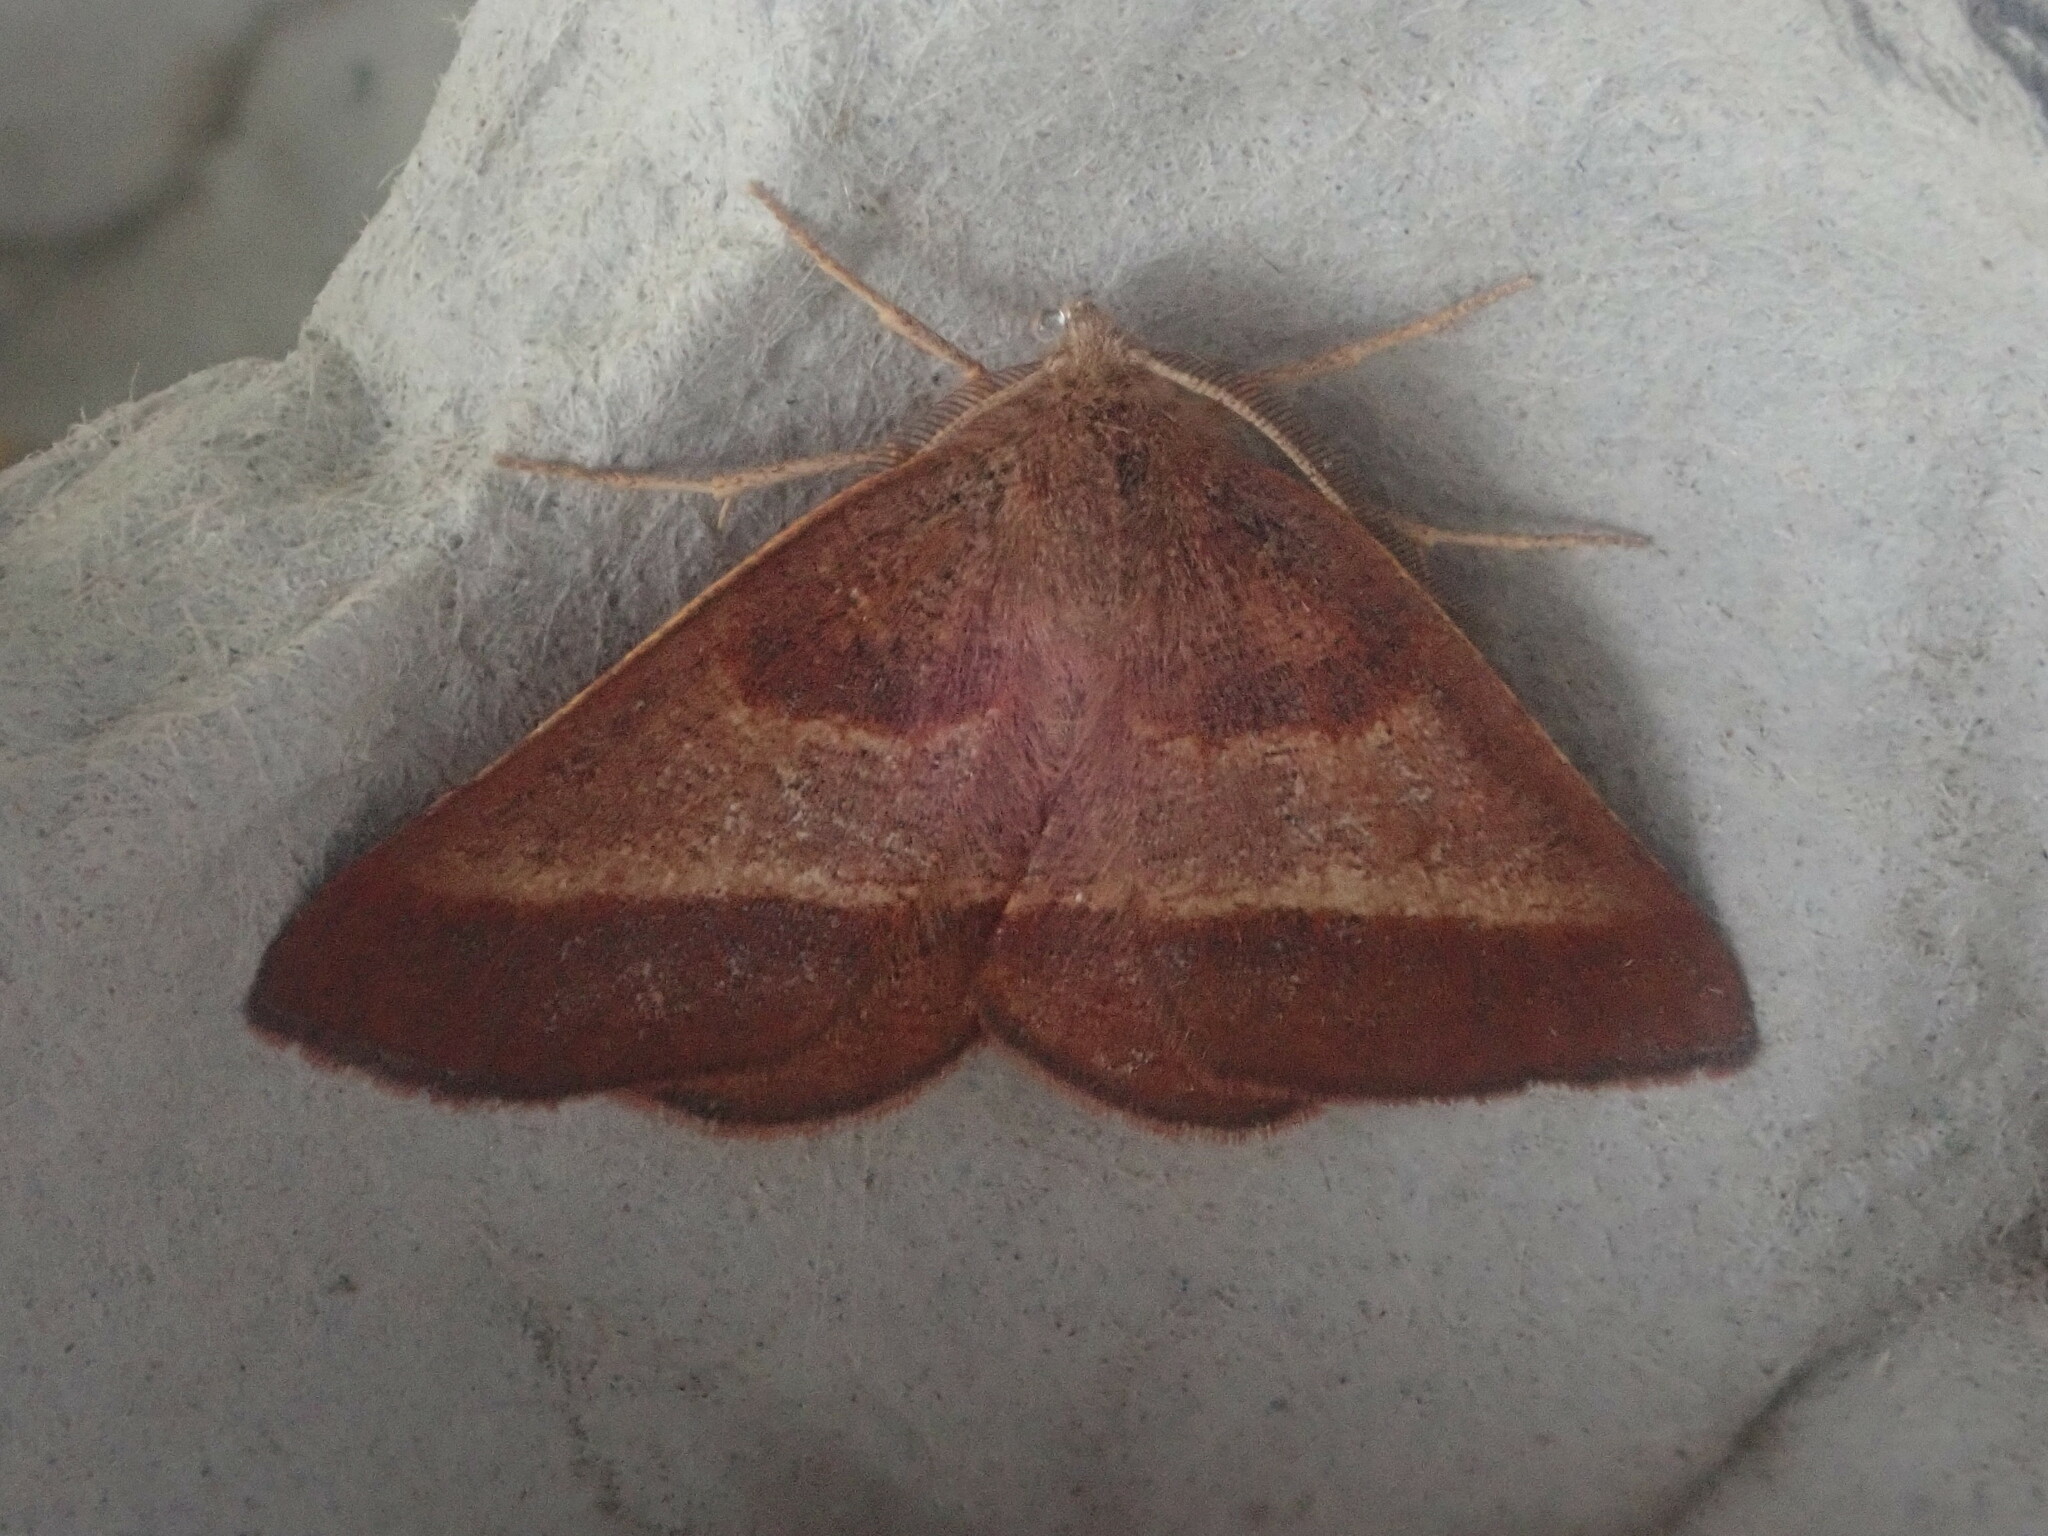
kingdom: Animalia
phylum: Arthropoda
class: Insecta
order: Lepidoptera
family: Geometridae
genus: Metarranthis
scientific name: Metarranthis obfirmaria
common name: Yellow-washed metarranthis
